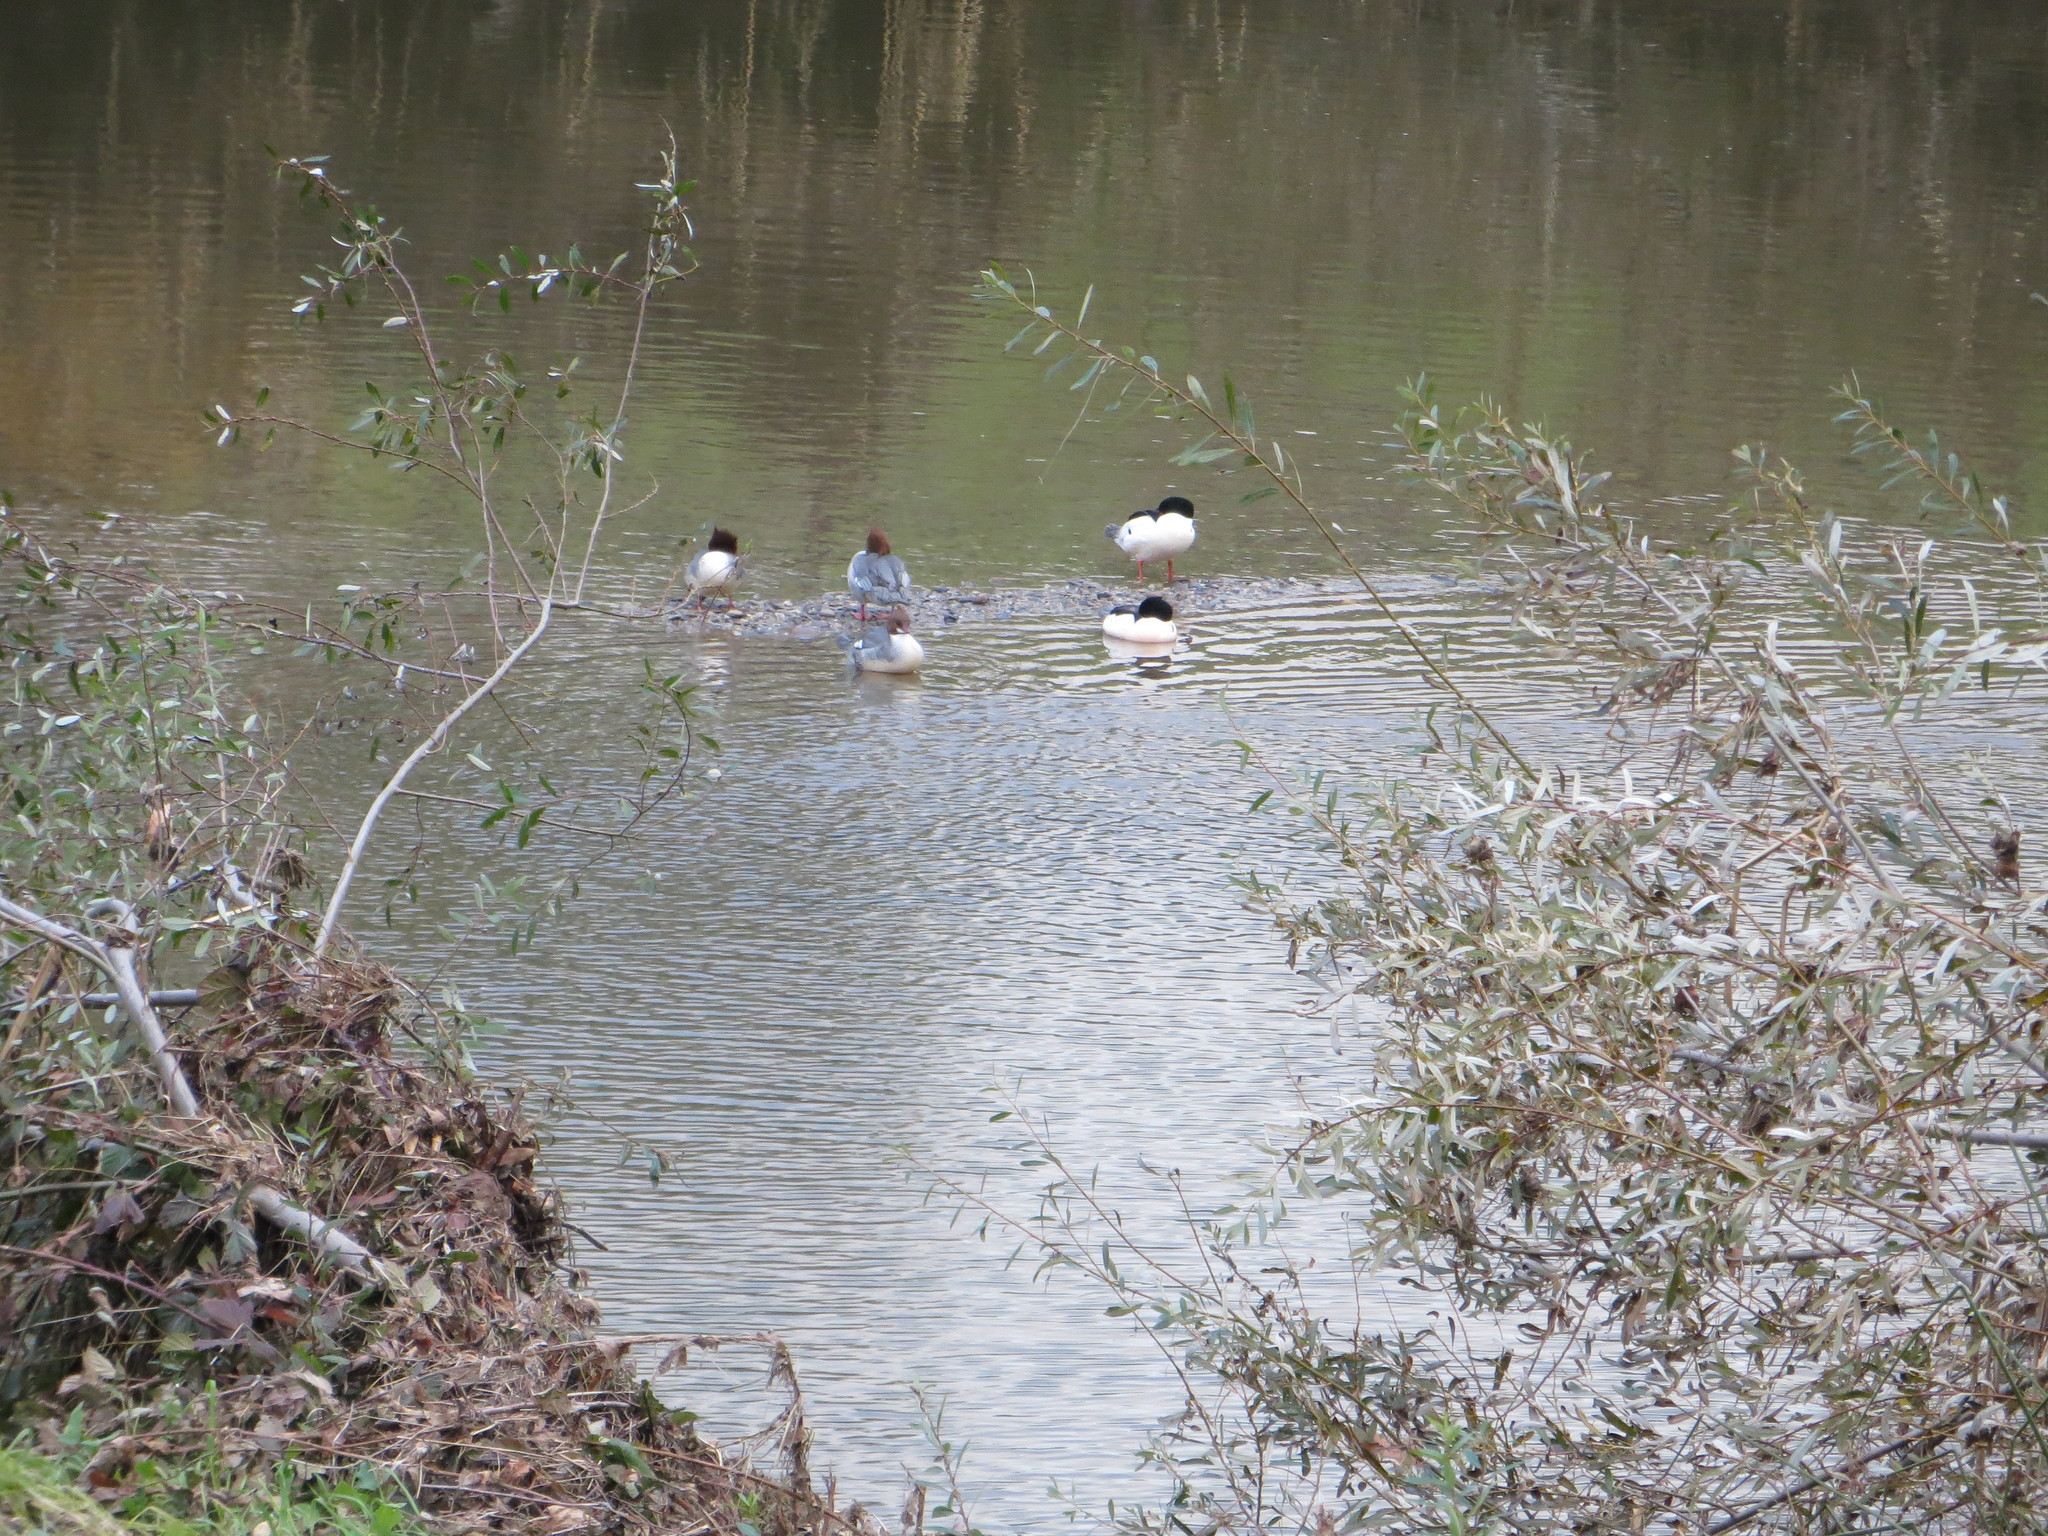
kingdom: Animalia
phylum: Chordata
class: Aves
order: Anseriformes
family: Anatidae
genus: Mergus
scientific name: Mergus merganser
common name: Common merganser
